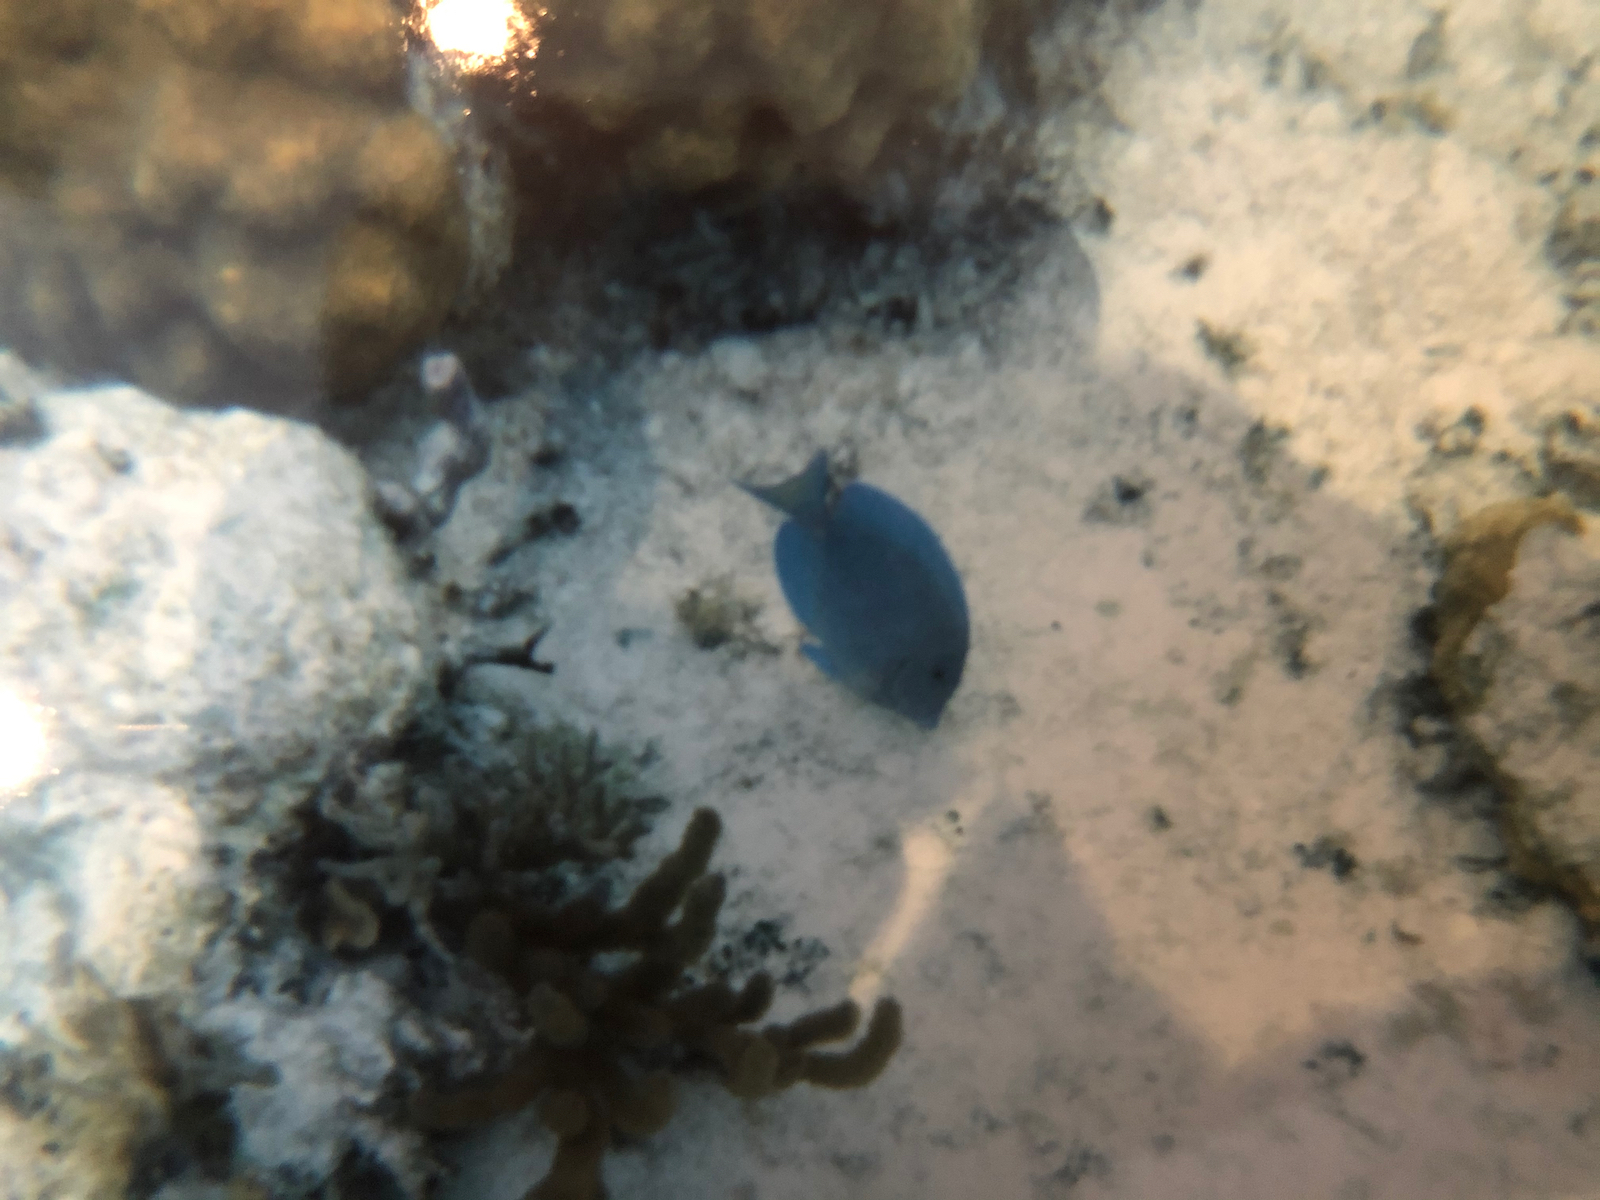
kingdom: Animalia
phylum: Chordata
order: Perciformes
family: Acanthuridae
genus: Acanthurus
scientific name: Acanthurus coeruleus
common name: Blue tang
